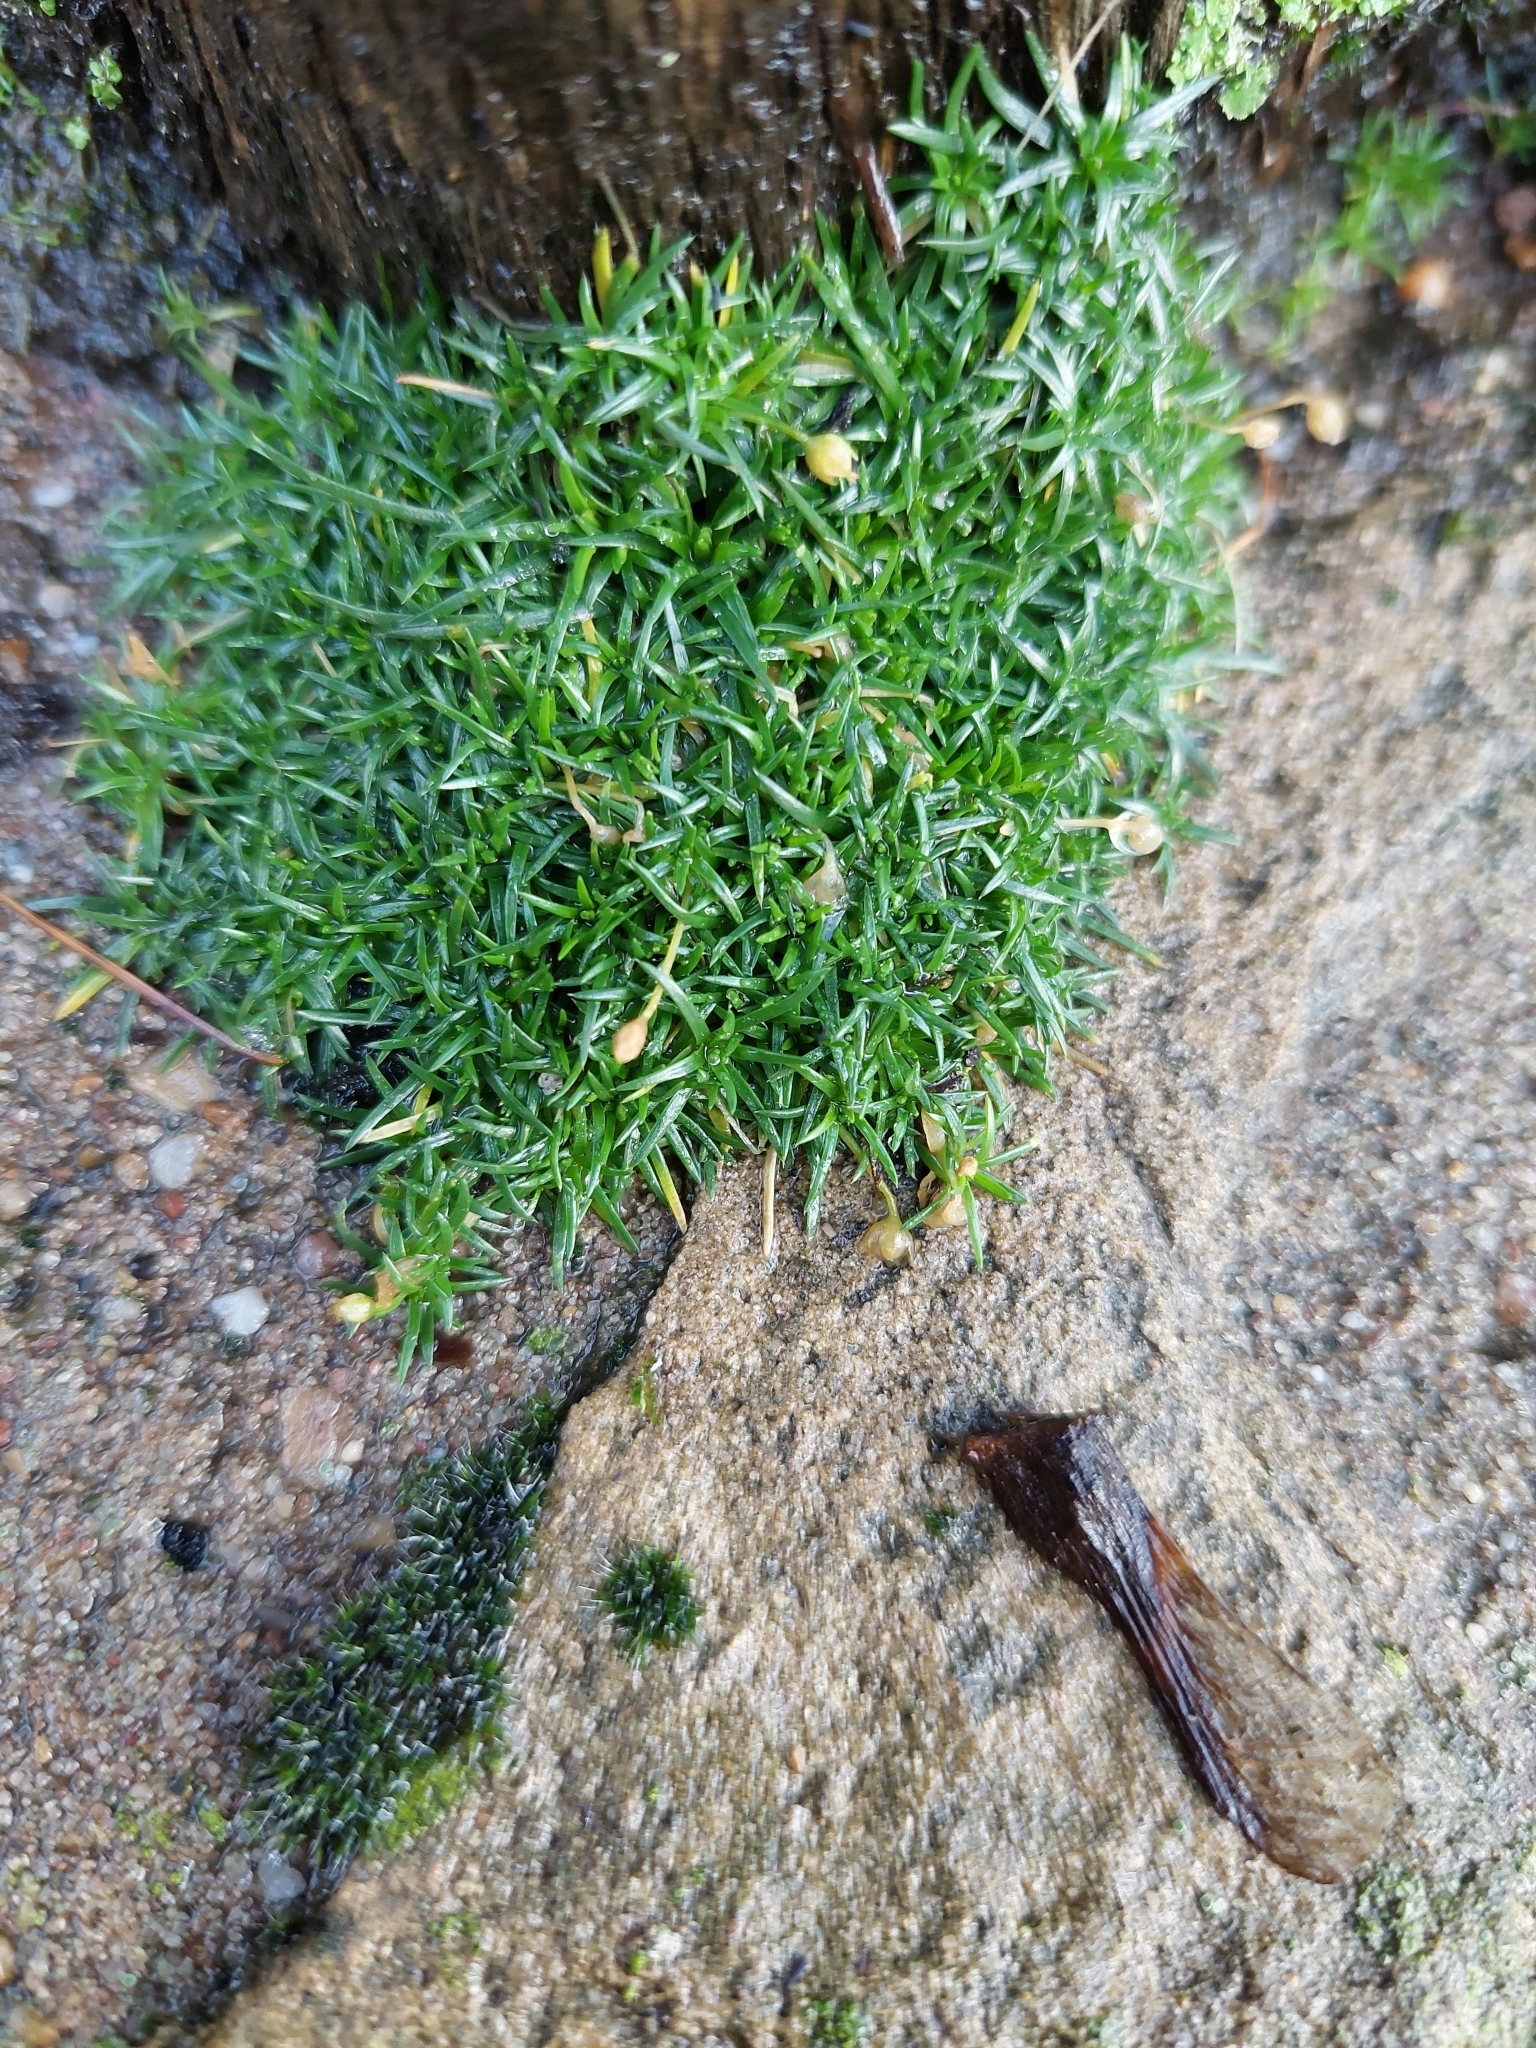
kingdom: Plantae
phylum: Tracheophyta
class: Magnoliopsida
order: Caryophyllales
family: Caryophyllaceae
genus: Sagina
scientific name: Sagina procumbens
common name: Procumbent pearlwort
